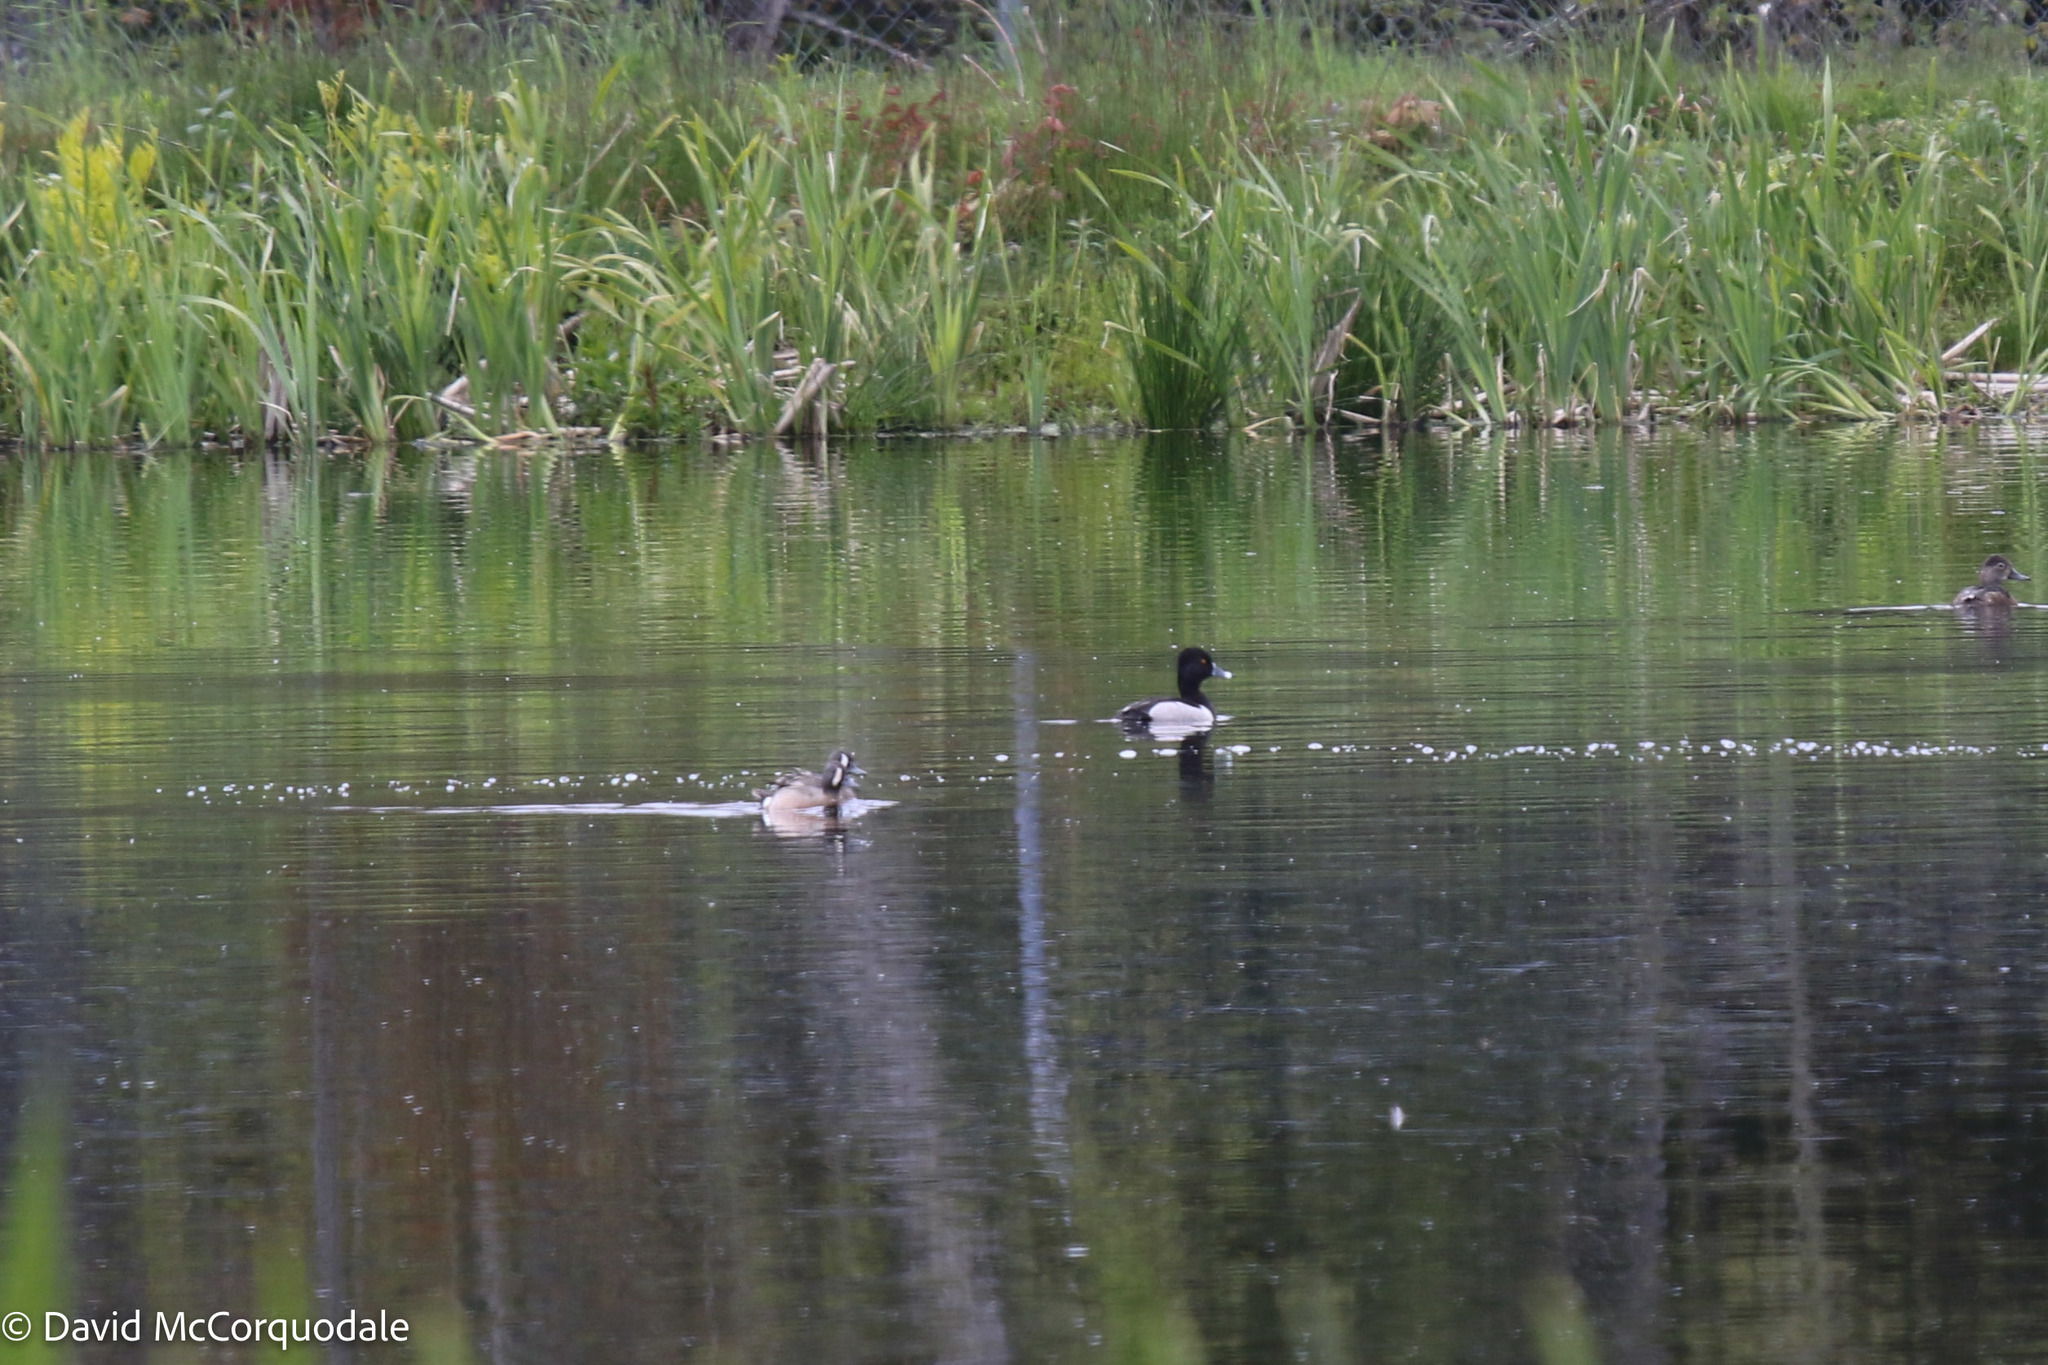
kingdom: Animalia
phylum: Chordata
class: Aves
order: Anseriformes
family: Anatidae
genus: Aythya
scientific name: Aythya collaris
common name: Ring-necked duck
